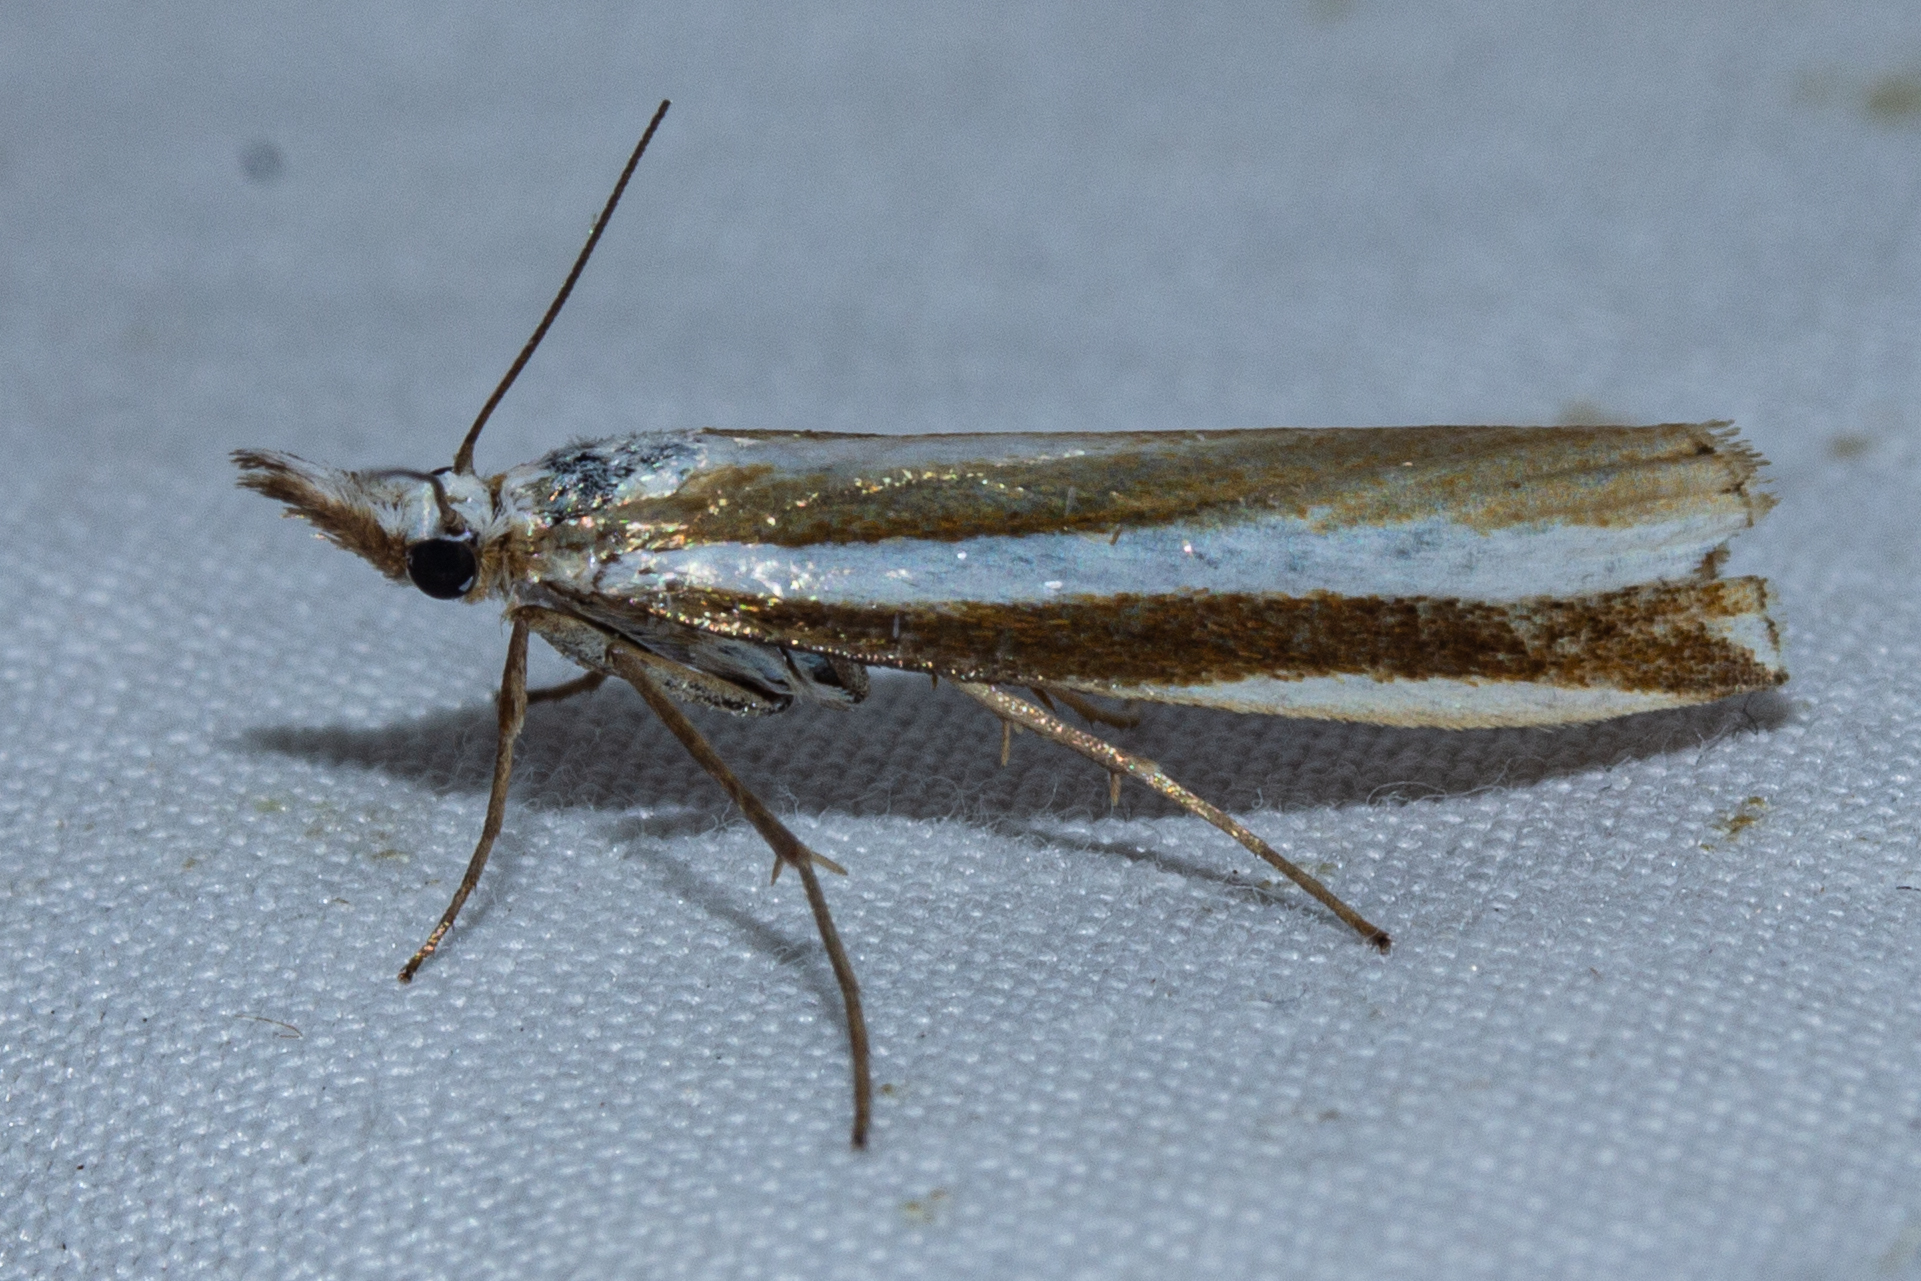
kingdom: Animalia
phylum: Arthropoda
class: Insecta
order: Lepidoptera
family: Crambidae
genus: Orocrambus
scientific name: Orocrambus apicellus
